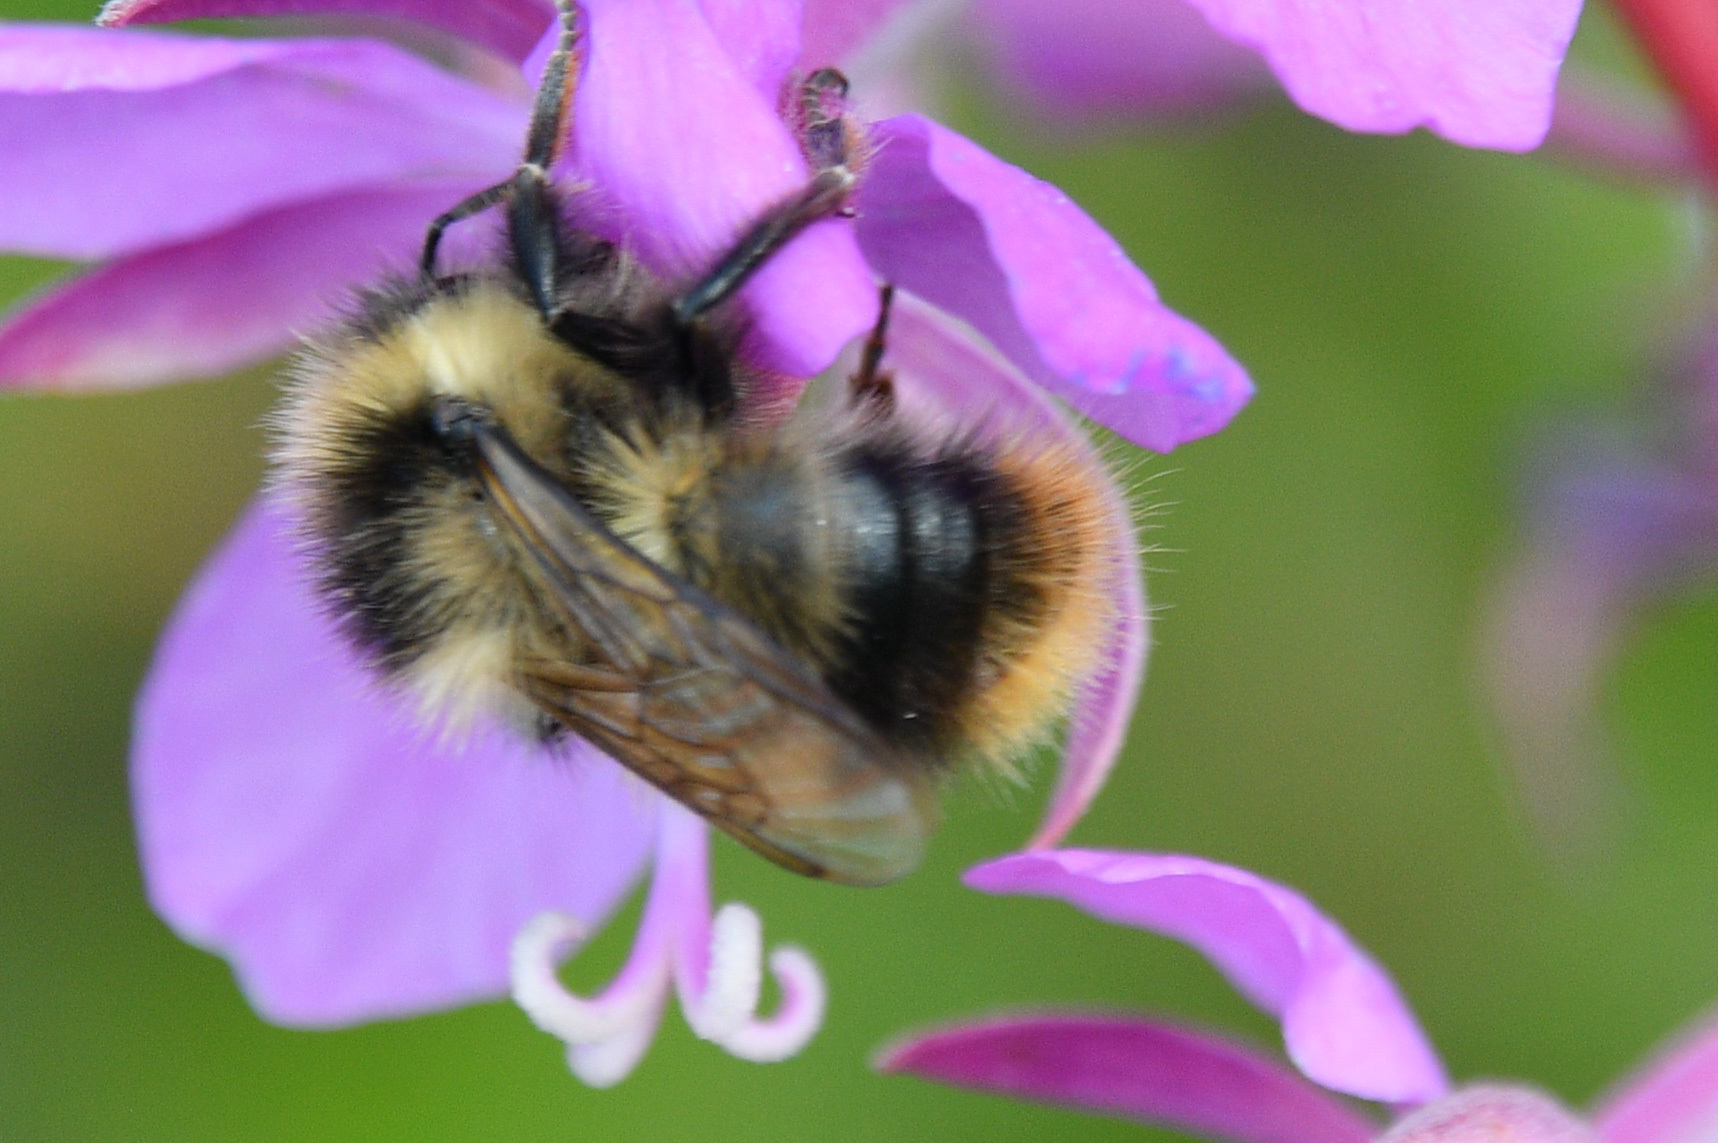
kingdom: Animalia
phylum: Arthropoda
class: Insecta
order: Hymenoptera
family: Apidae
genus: Bombus
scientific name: Bombus frigidus
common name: Frigid bumble bee
